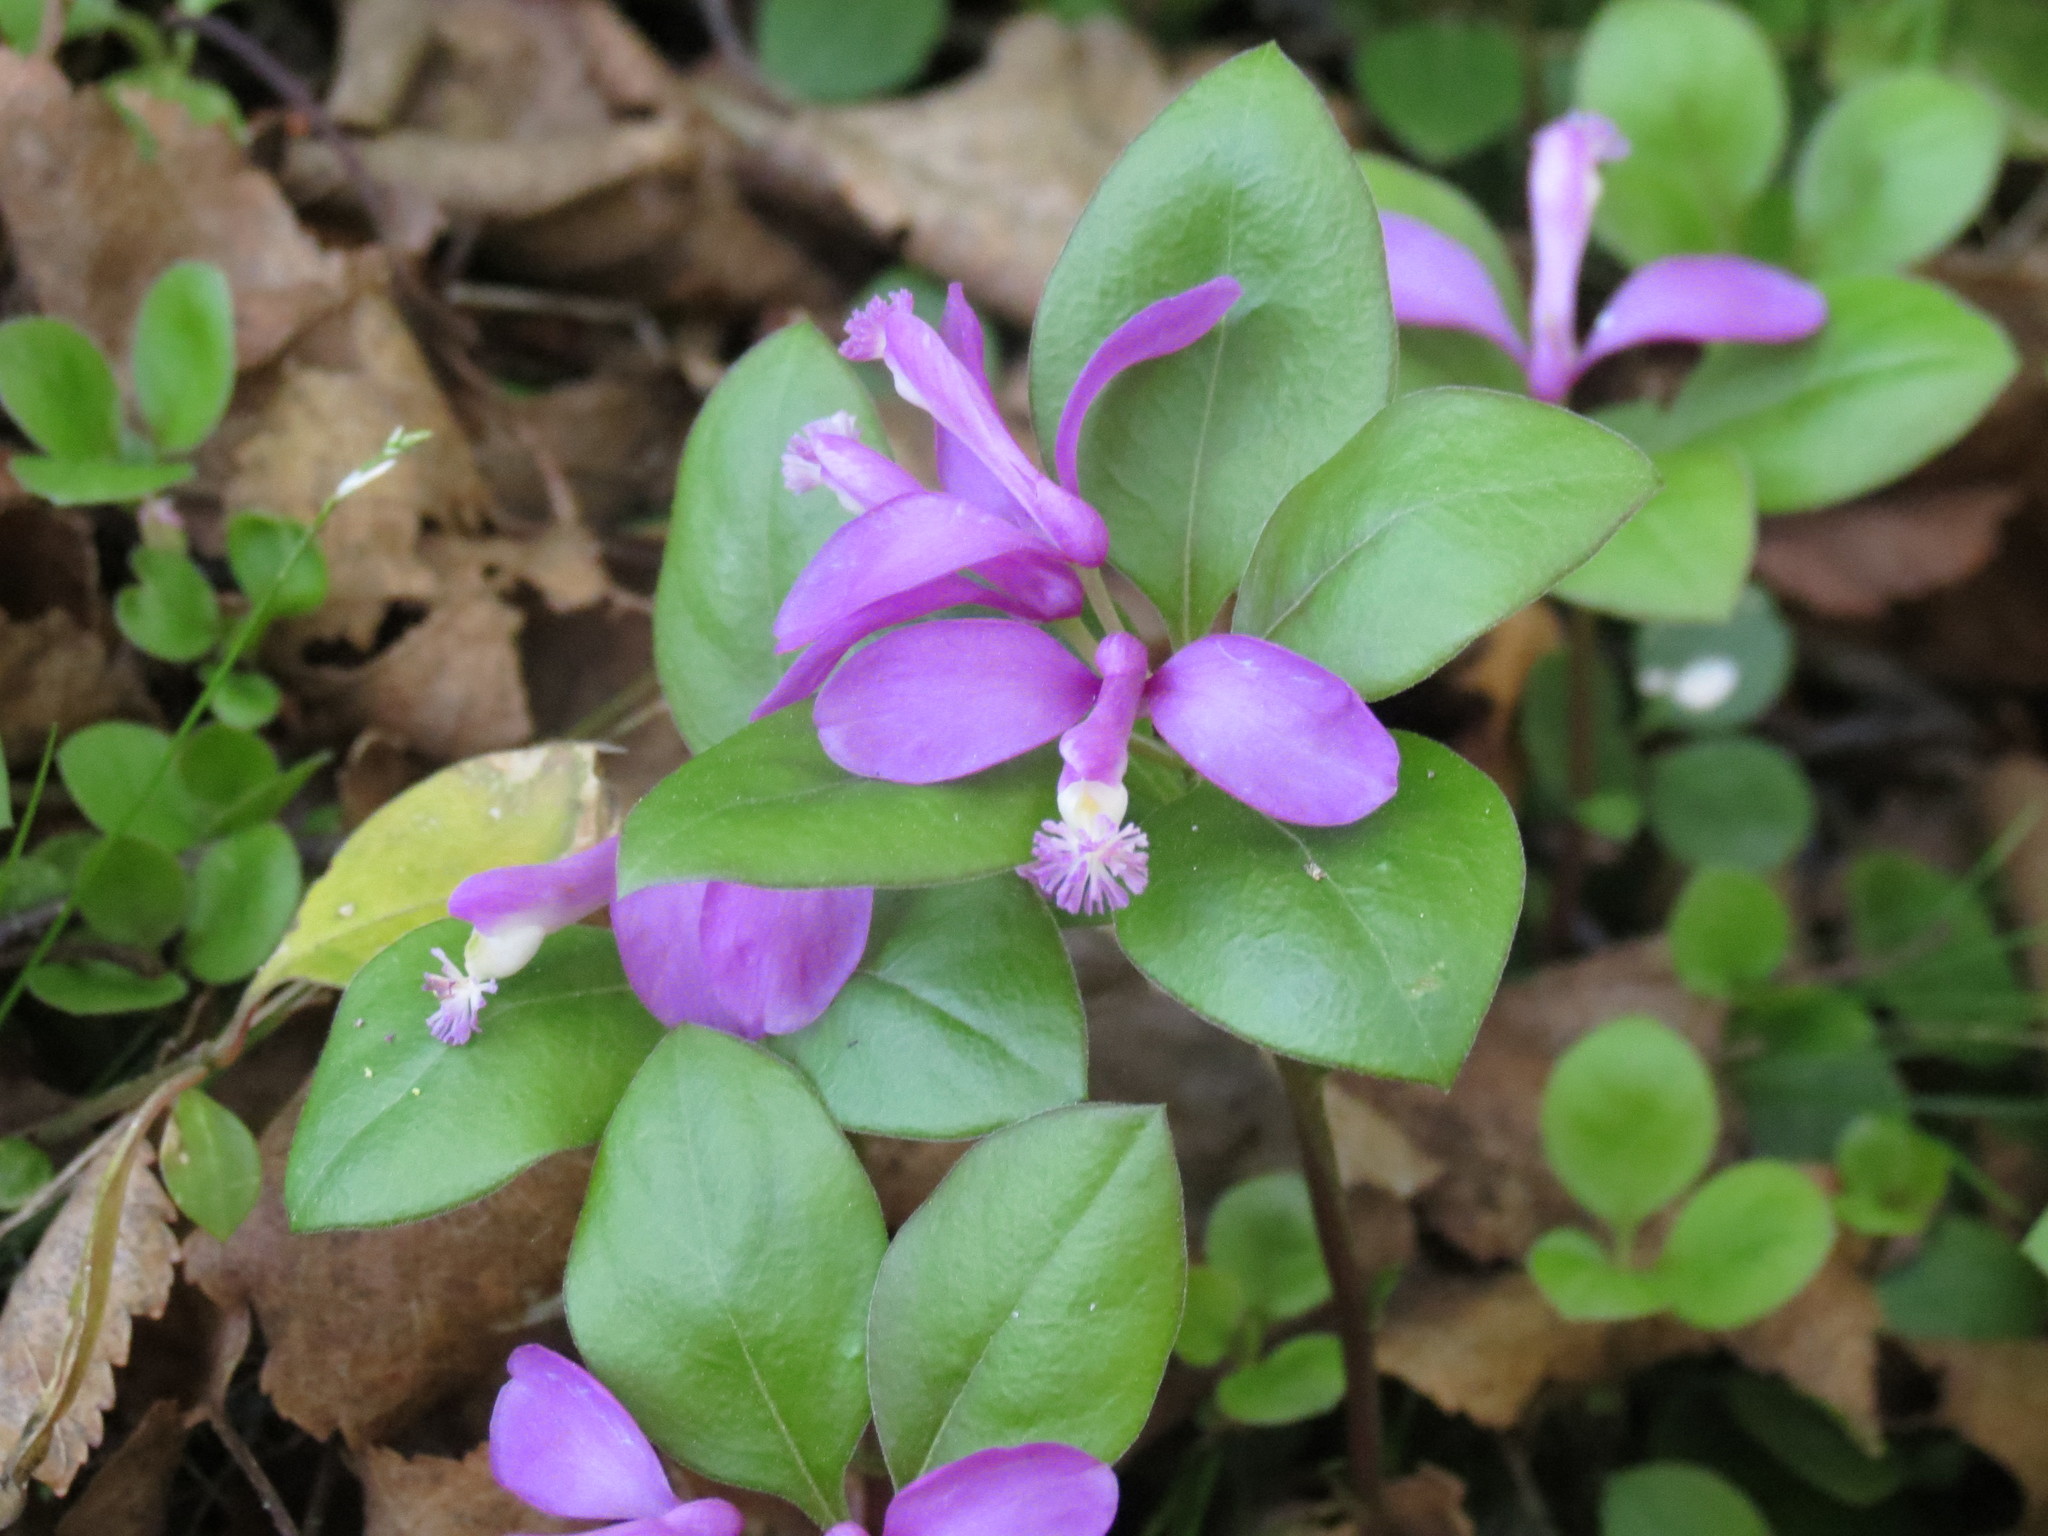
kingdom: Plantae
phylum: Tracheophyta
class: Magnoliopsida
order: Fabales
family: Polygalaceae
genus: Polygaloides
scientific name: Polygaloides paucifolia
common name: Bird-on-the-wing
